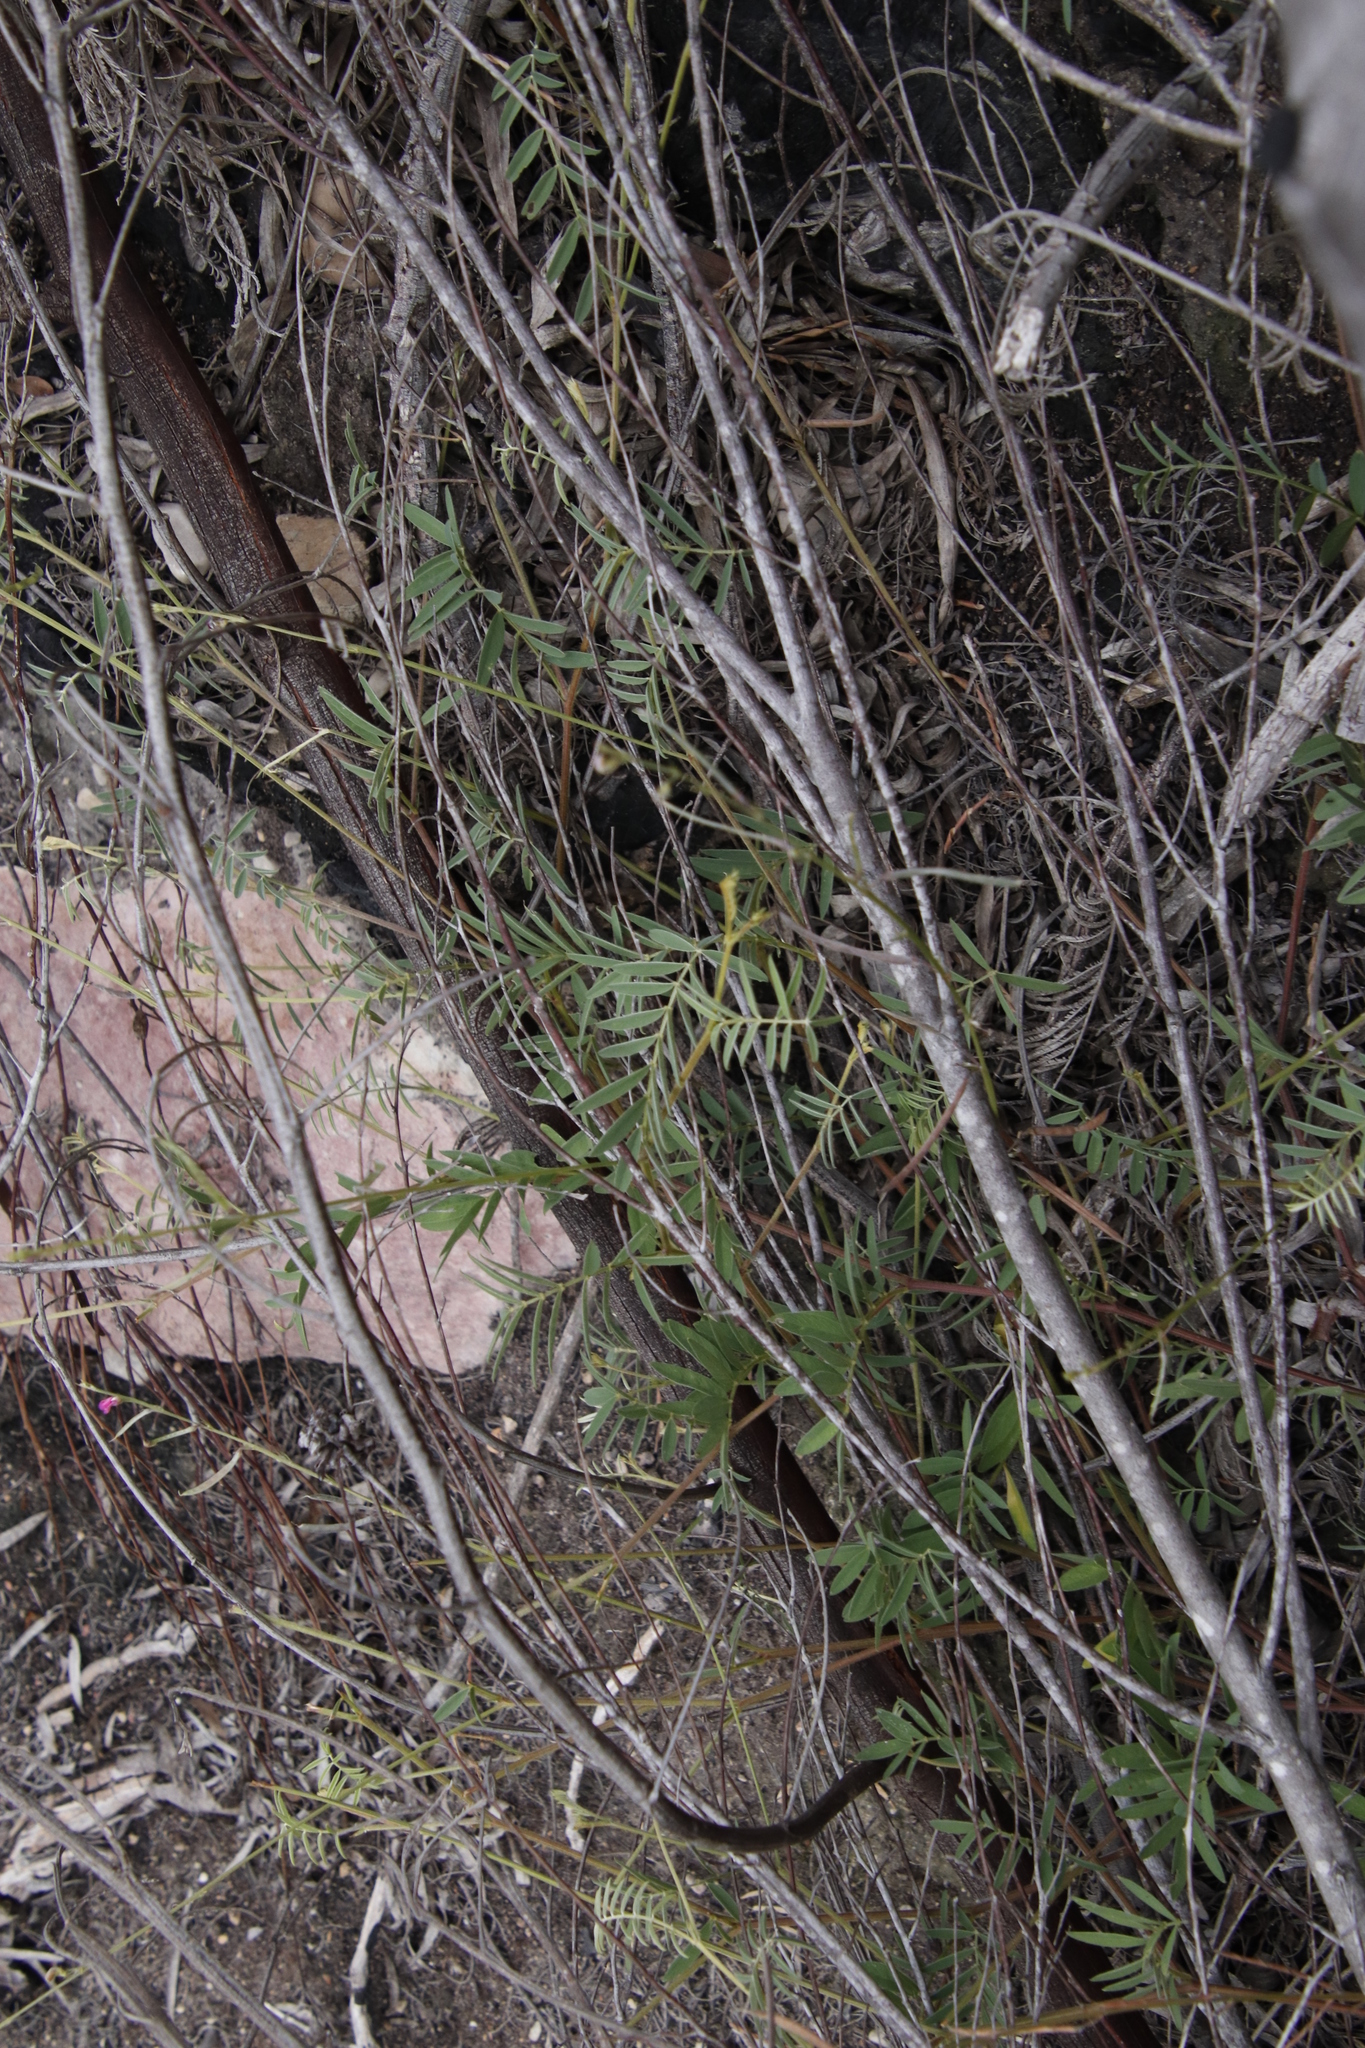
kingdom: Plantae
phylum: Tracheophyta
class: Magnoliopsida
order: Fabales
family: Fabaceae
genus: Tephrosia
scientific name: Tephrosia capensis
